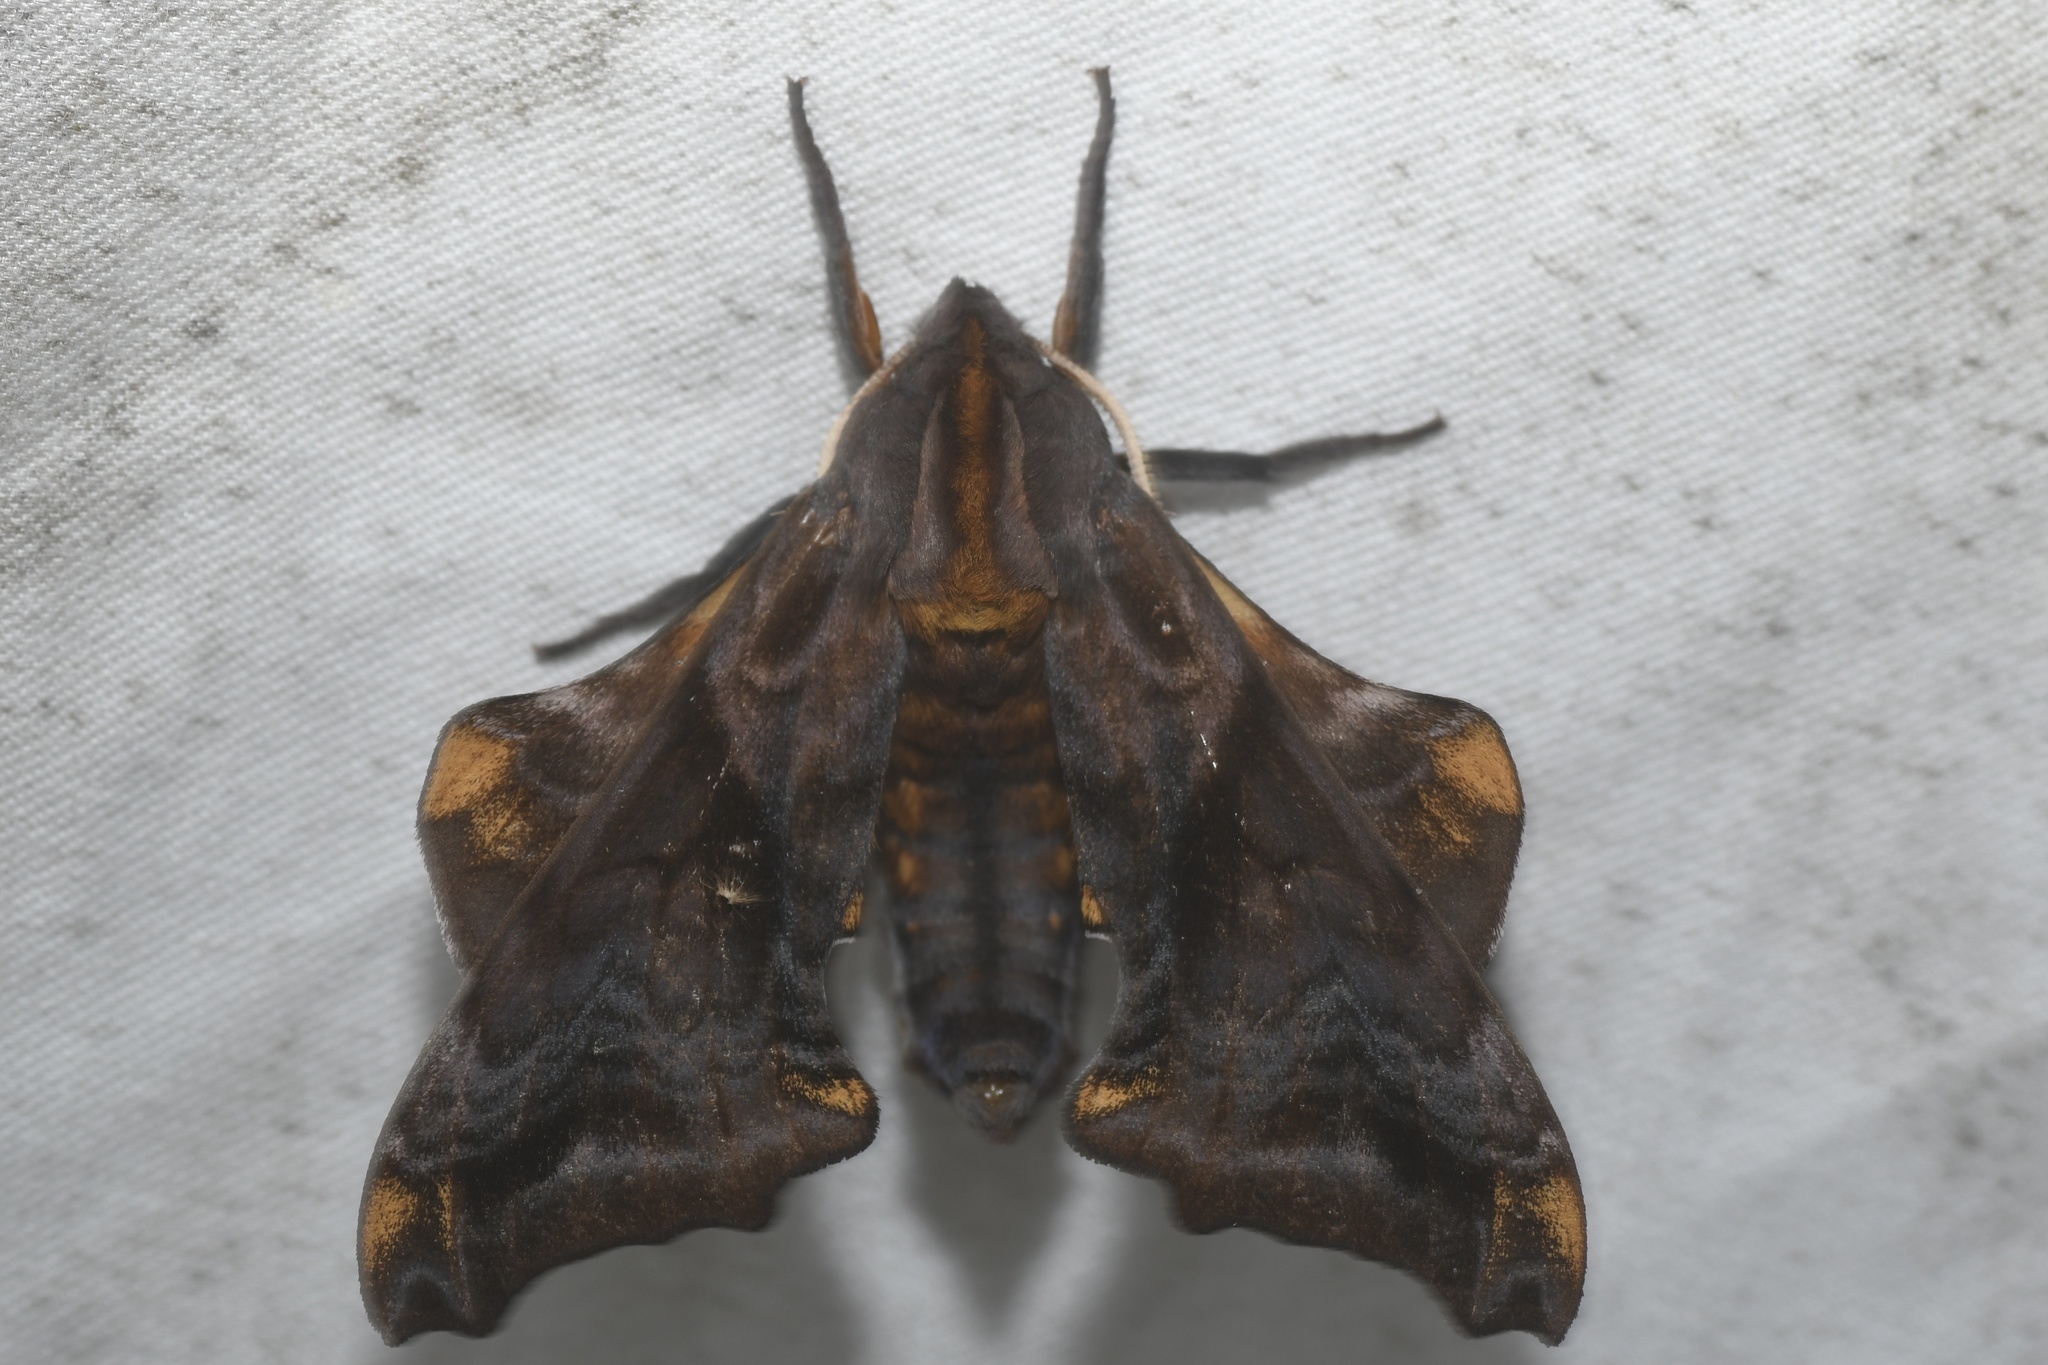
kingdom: Animalia
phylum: Arthropoda
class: Insecta
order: Lepidoptera
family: Sphingidae
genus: Paonias
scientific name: Paonias myops
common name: Small-eyed sphinx
